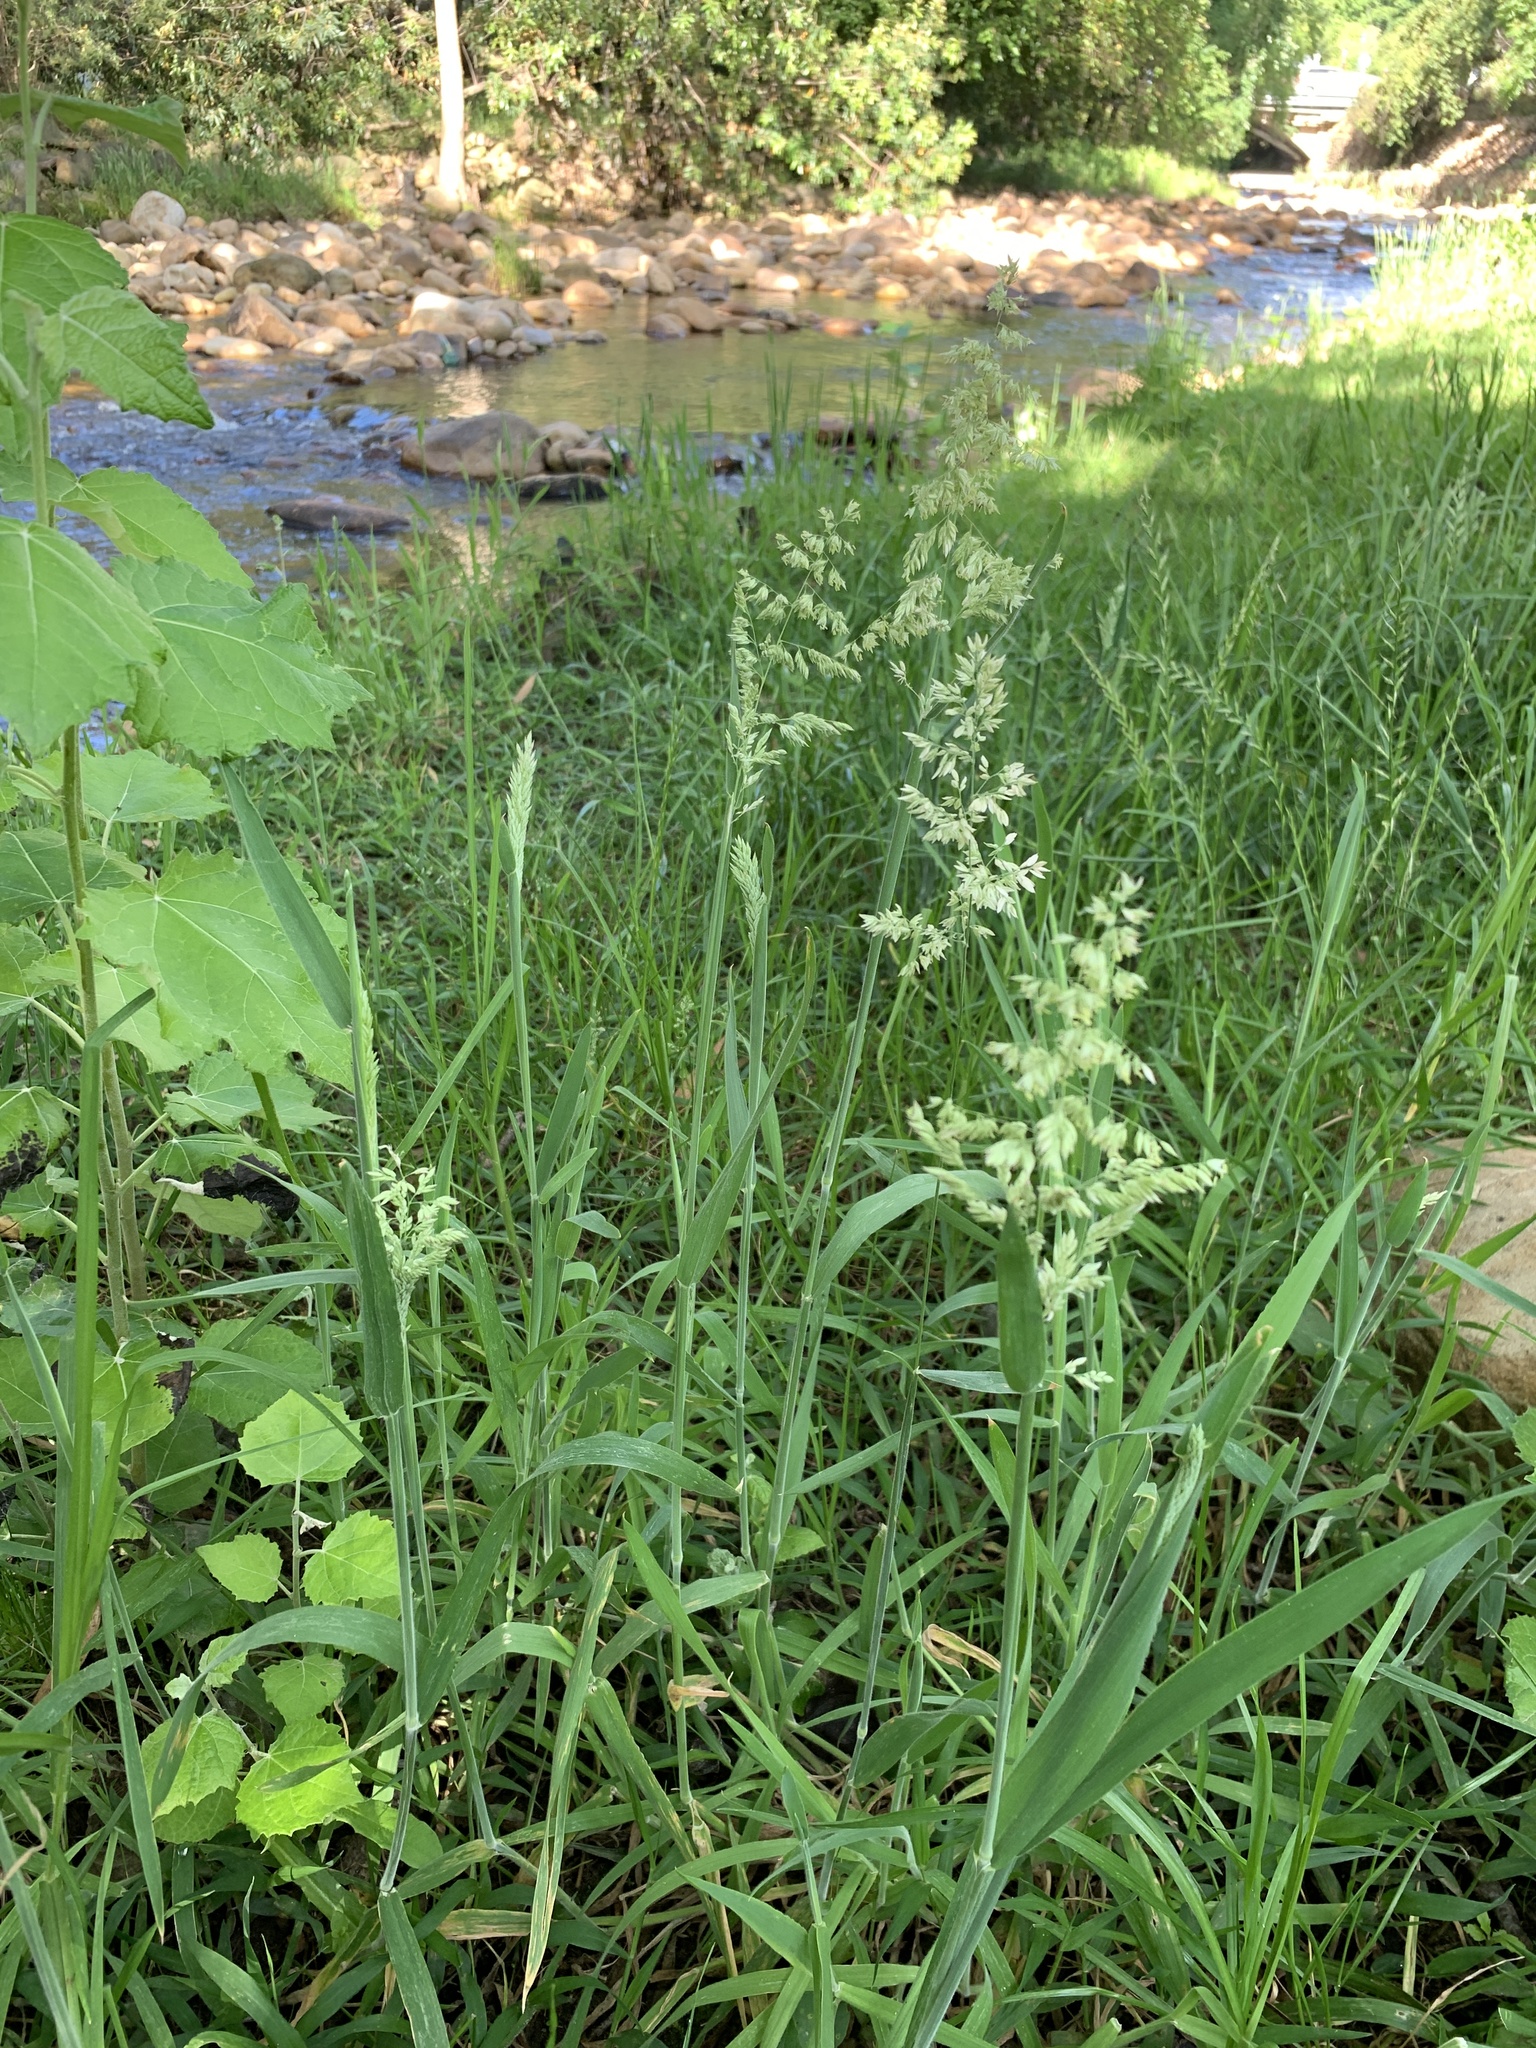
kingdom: Plantae
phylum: Tracheophyta
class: Liliopsida
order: Poales
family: Poaceae
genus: Holcus
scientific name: Holcus lanatus
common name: Yorkshire-fog
